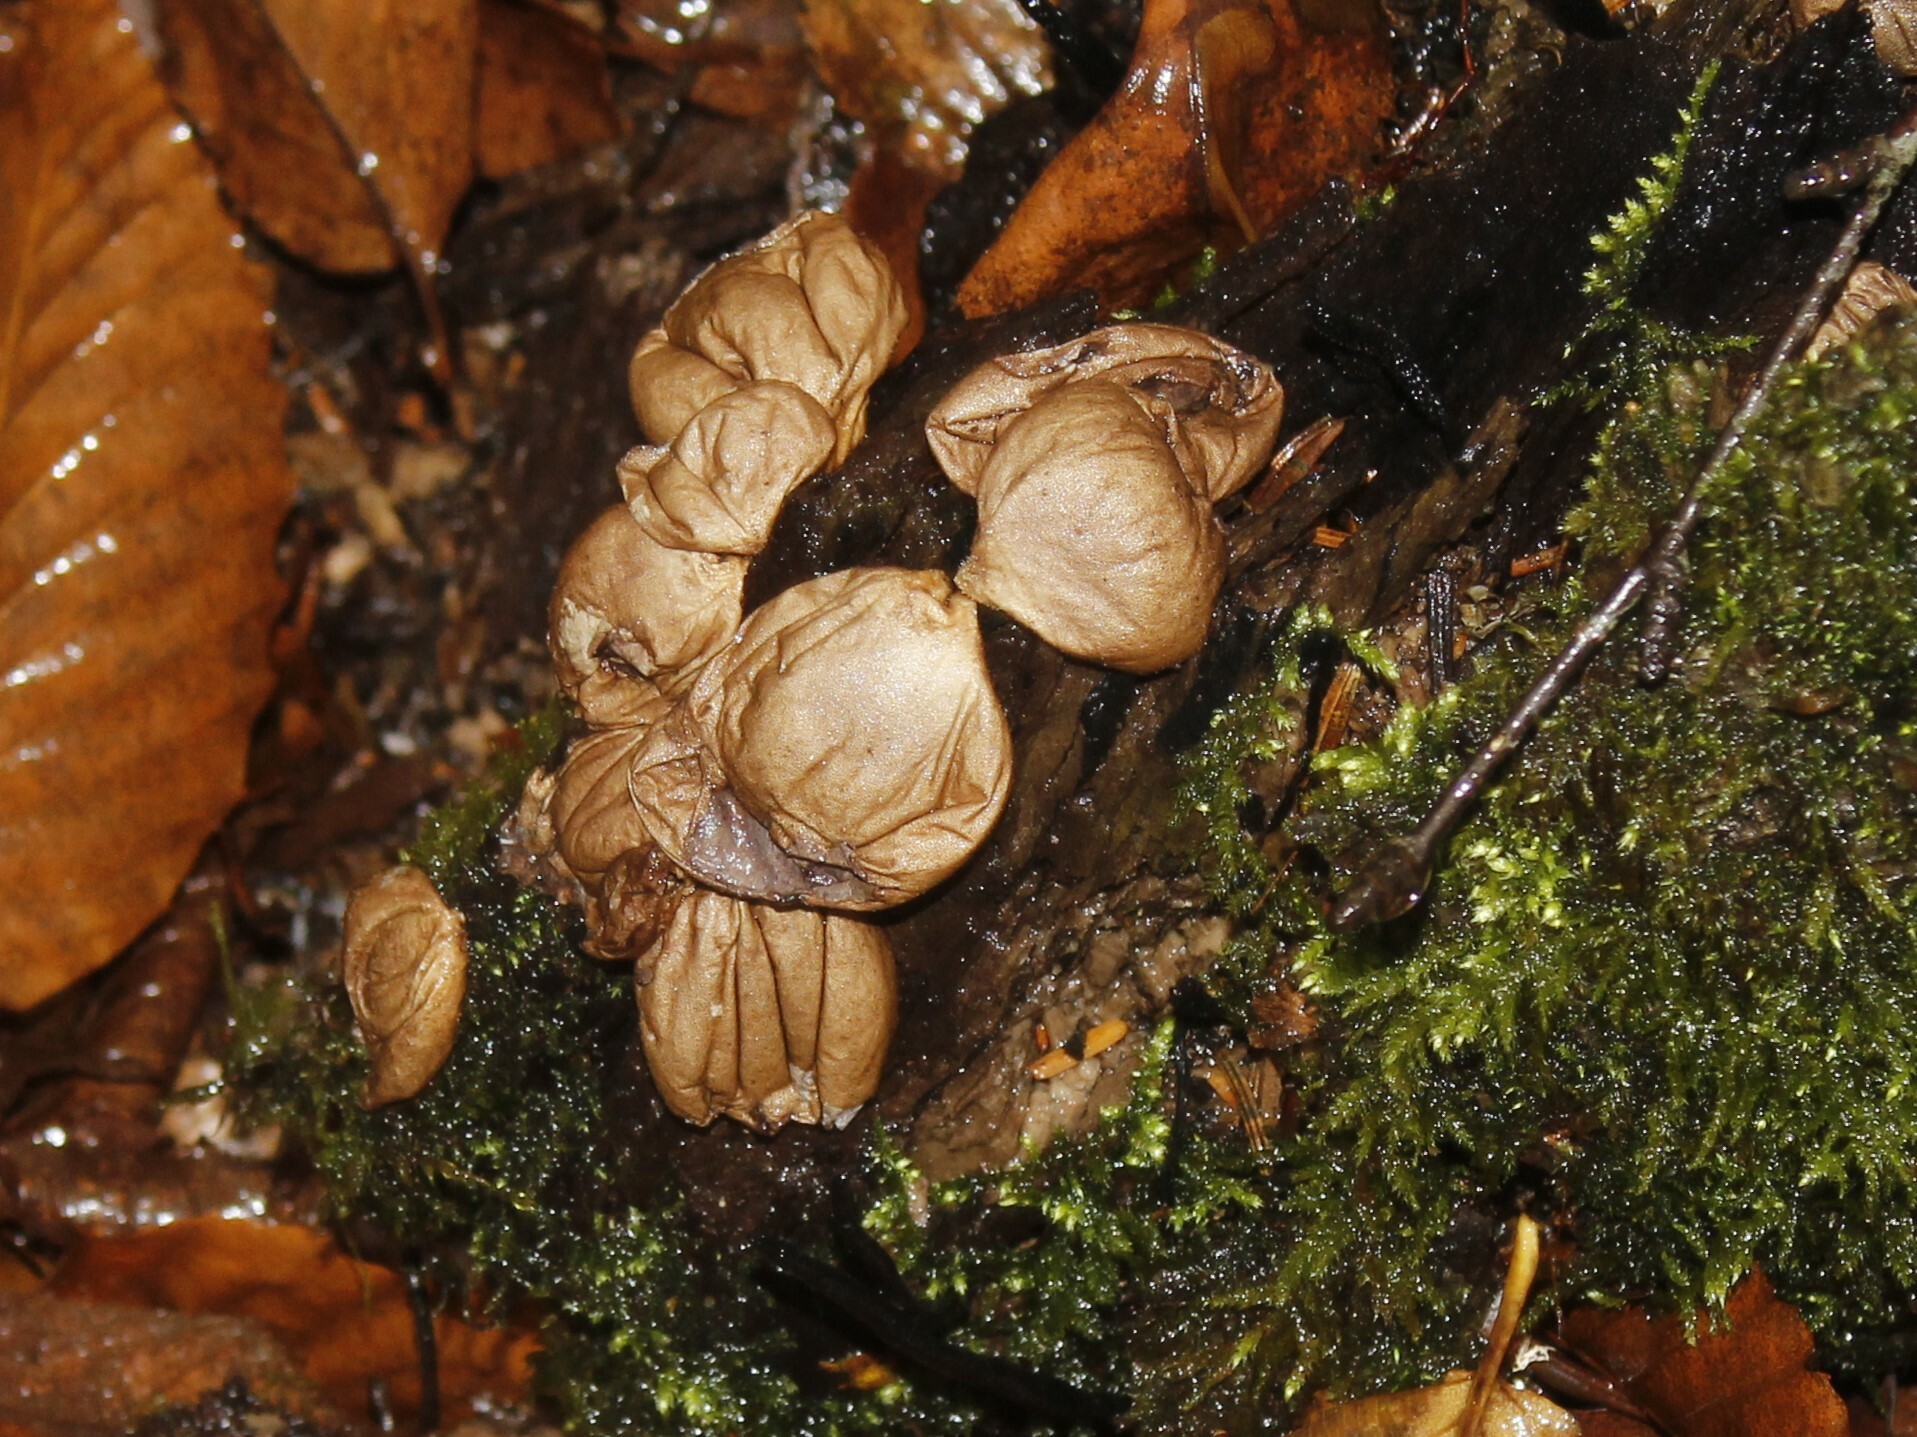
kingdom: Fungi
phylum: Basidiomycota
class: Agaricomycetes
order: Agaricales
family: Lycoperdaceae
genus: Apioperdon
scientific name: Apioperdon pyriforme
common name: Pear-shaped puffball
